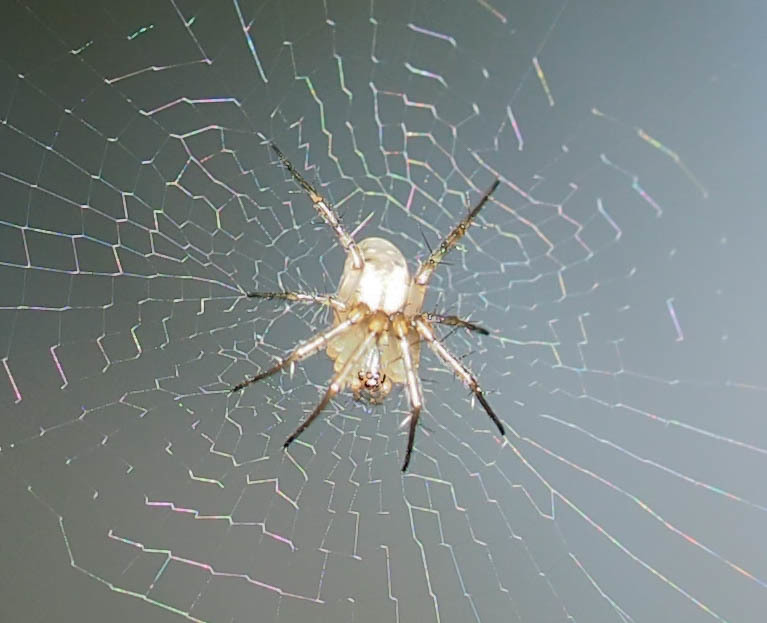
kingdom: Animalia
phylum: Arthropoda
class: Arachnida
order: Araneae
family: Araneidae
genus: Mangora
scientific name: Mangora placida
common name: Tuft-legged orbweaver
